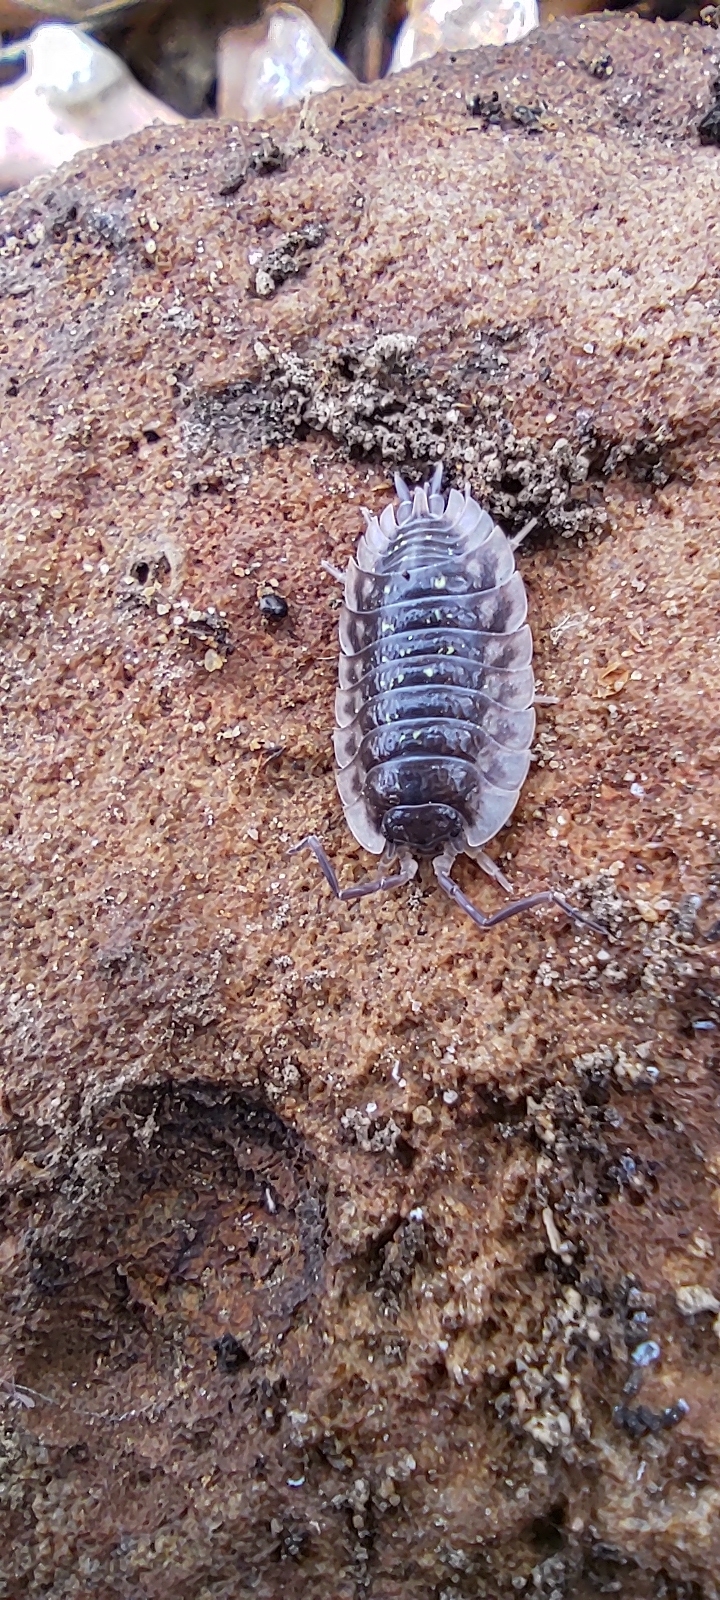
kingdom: Animalia
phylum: Arthropoda
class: Malacostraca
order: Isopoda
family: Oniscidae
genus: Oniscus
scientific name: Oniscus asellus
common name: Common shiny woodlouse
